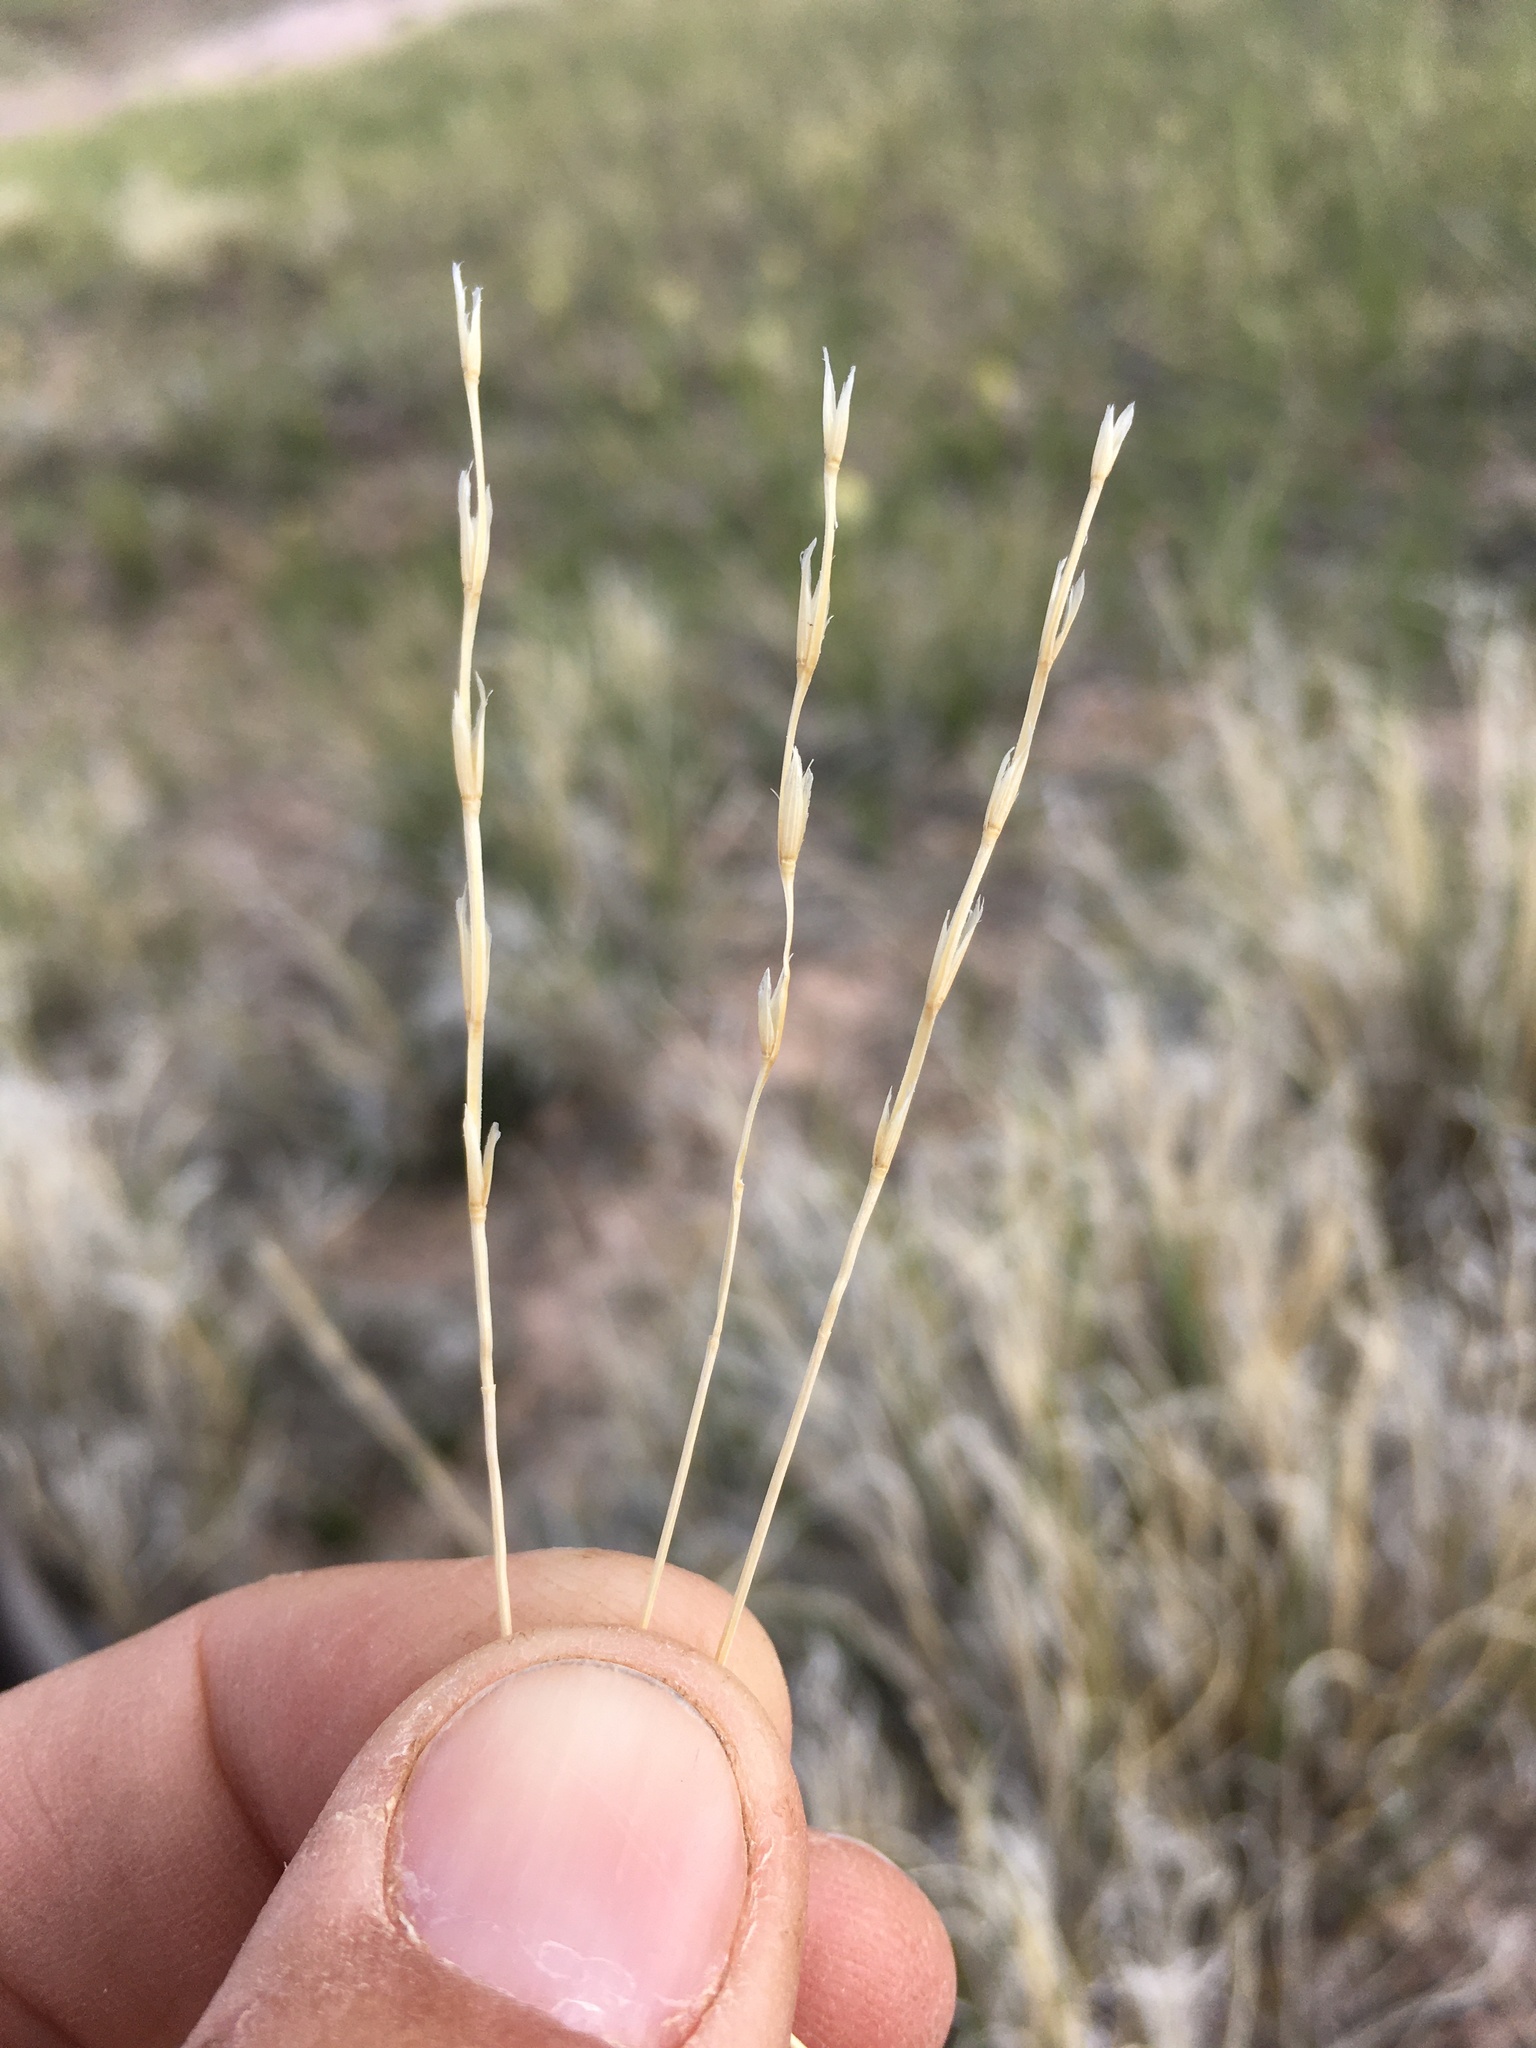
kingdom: Plantae
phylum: Tracheophyta
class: Liliopsida
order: Poales
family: Poaceae
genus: Pseudoroegneria
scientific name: Pseudoroegneria spicata
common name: Bluebunch wheatgrass
